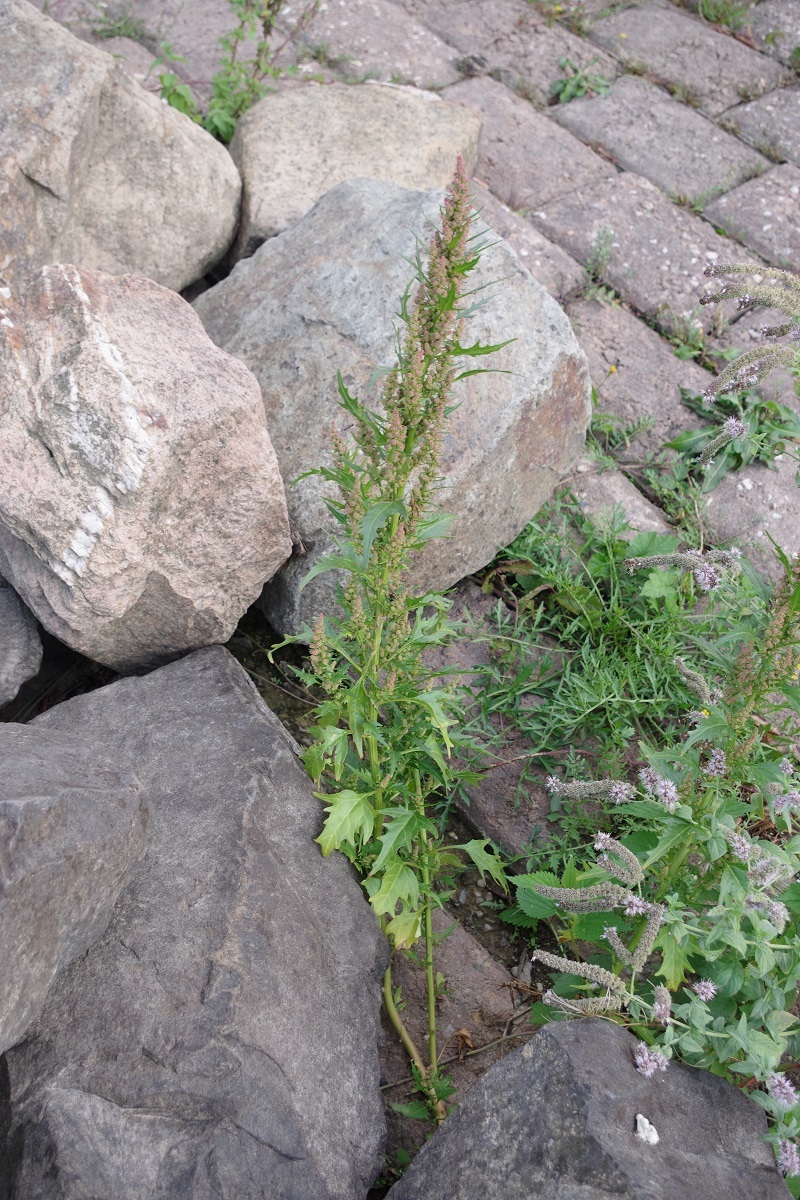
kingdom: Plantae
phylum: Tracheophyta
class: Magnoliopsida
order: Caryophyllales
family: Amaranthaceae
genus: Oxybasis
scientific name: Oxybasis rubra
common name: Red goosefoot
